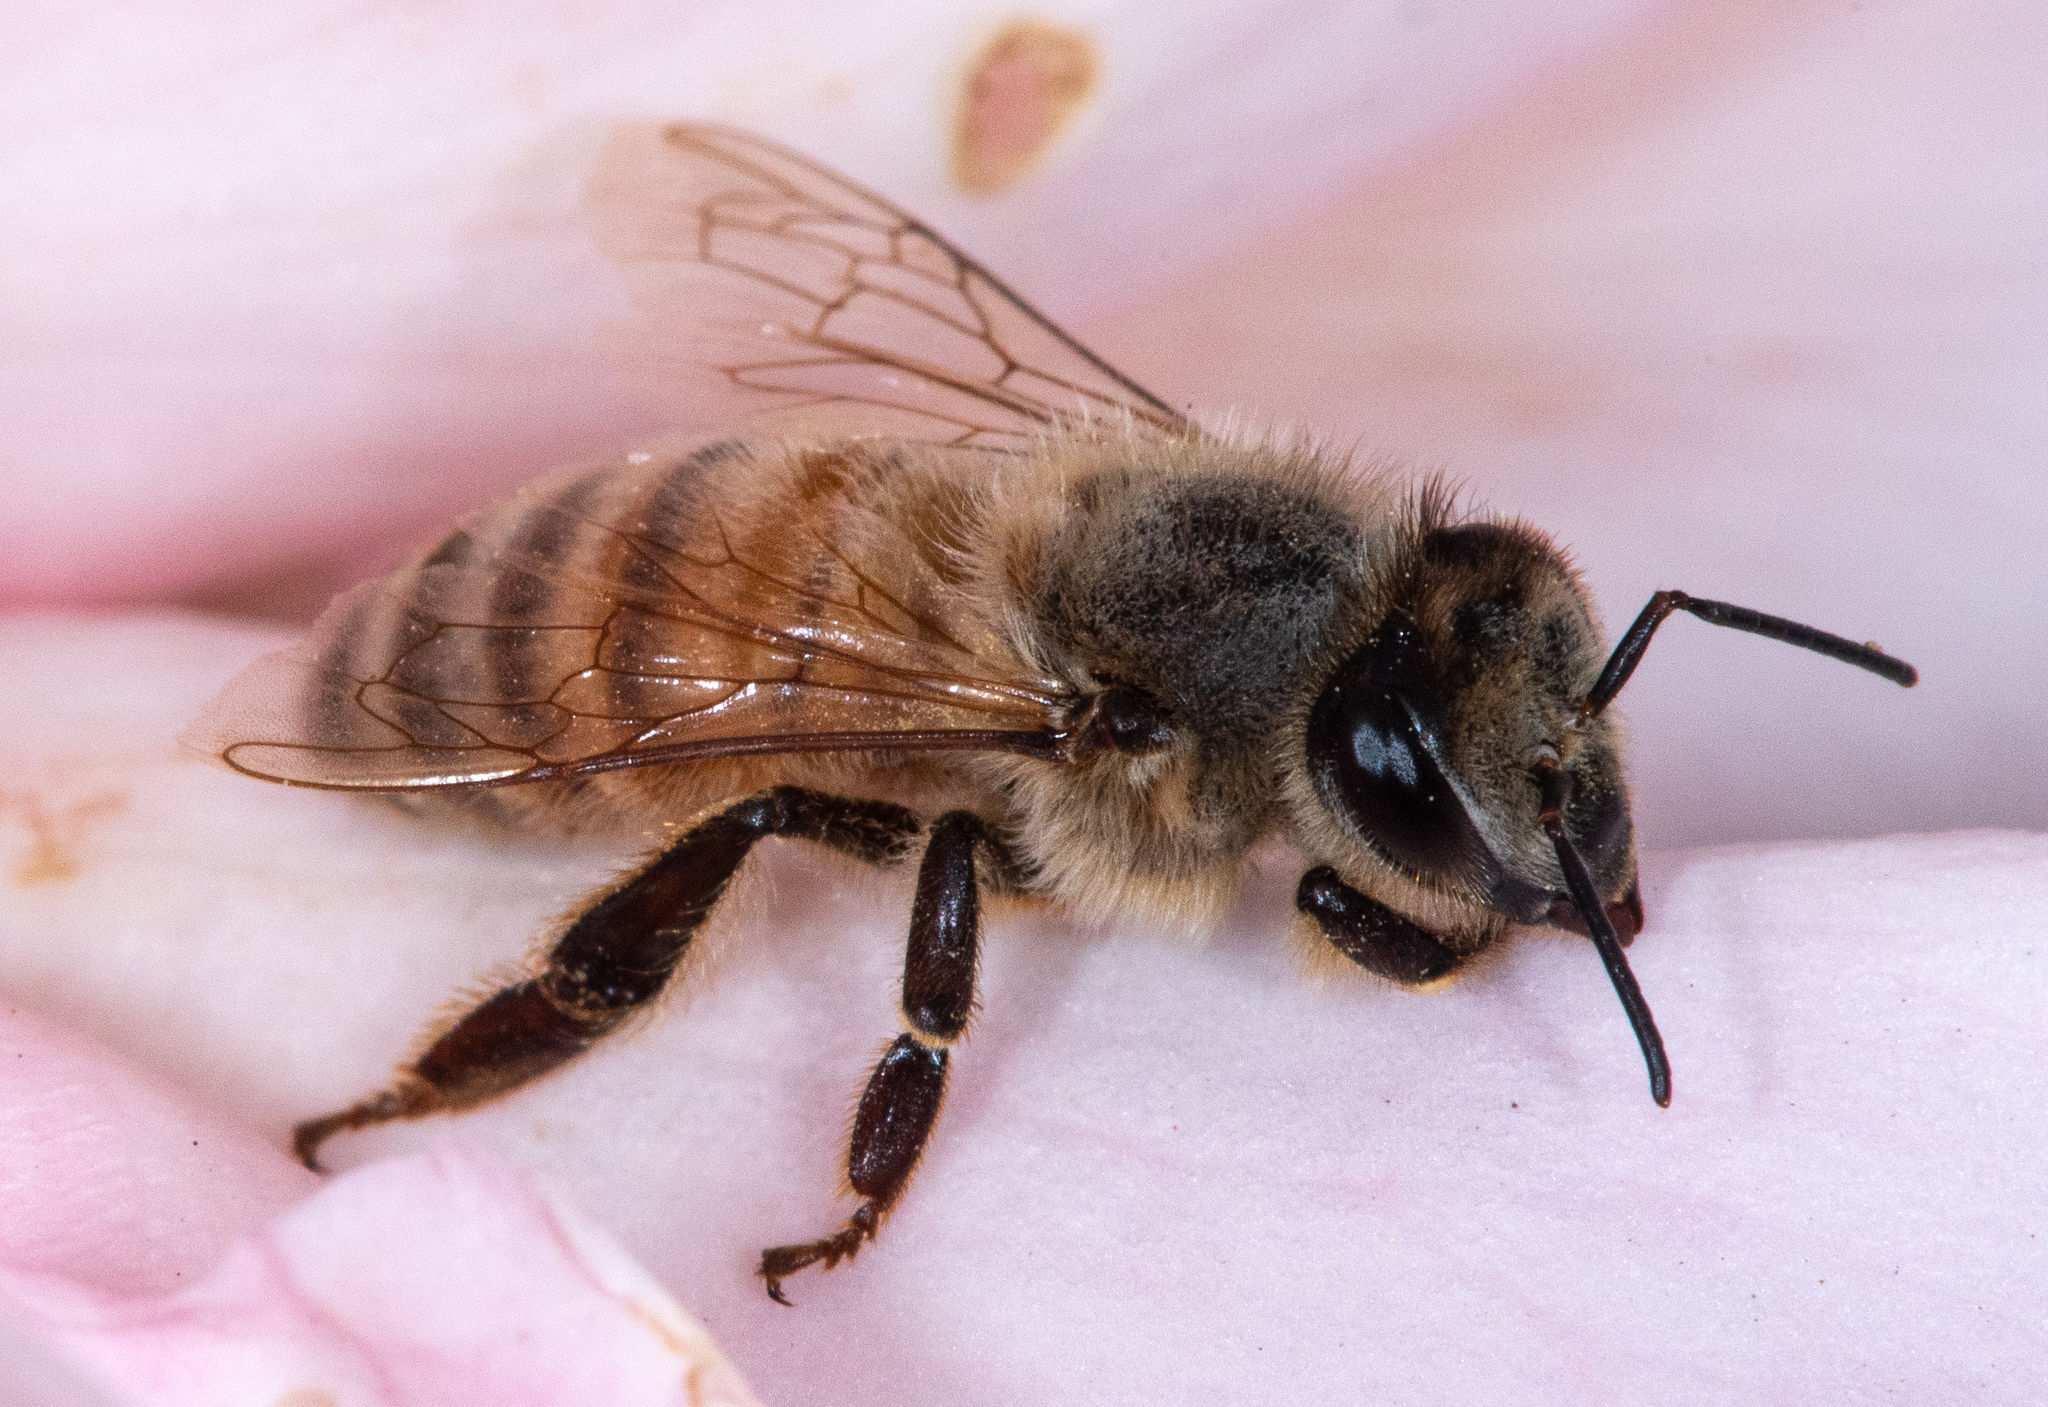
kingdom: Animalia
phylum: Arthropoda
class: Insecta
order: Hymenoptera
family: Apidae
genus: Apis
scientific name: Apis mellifera
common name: Honey bee
